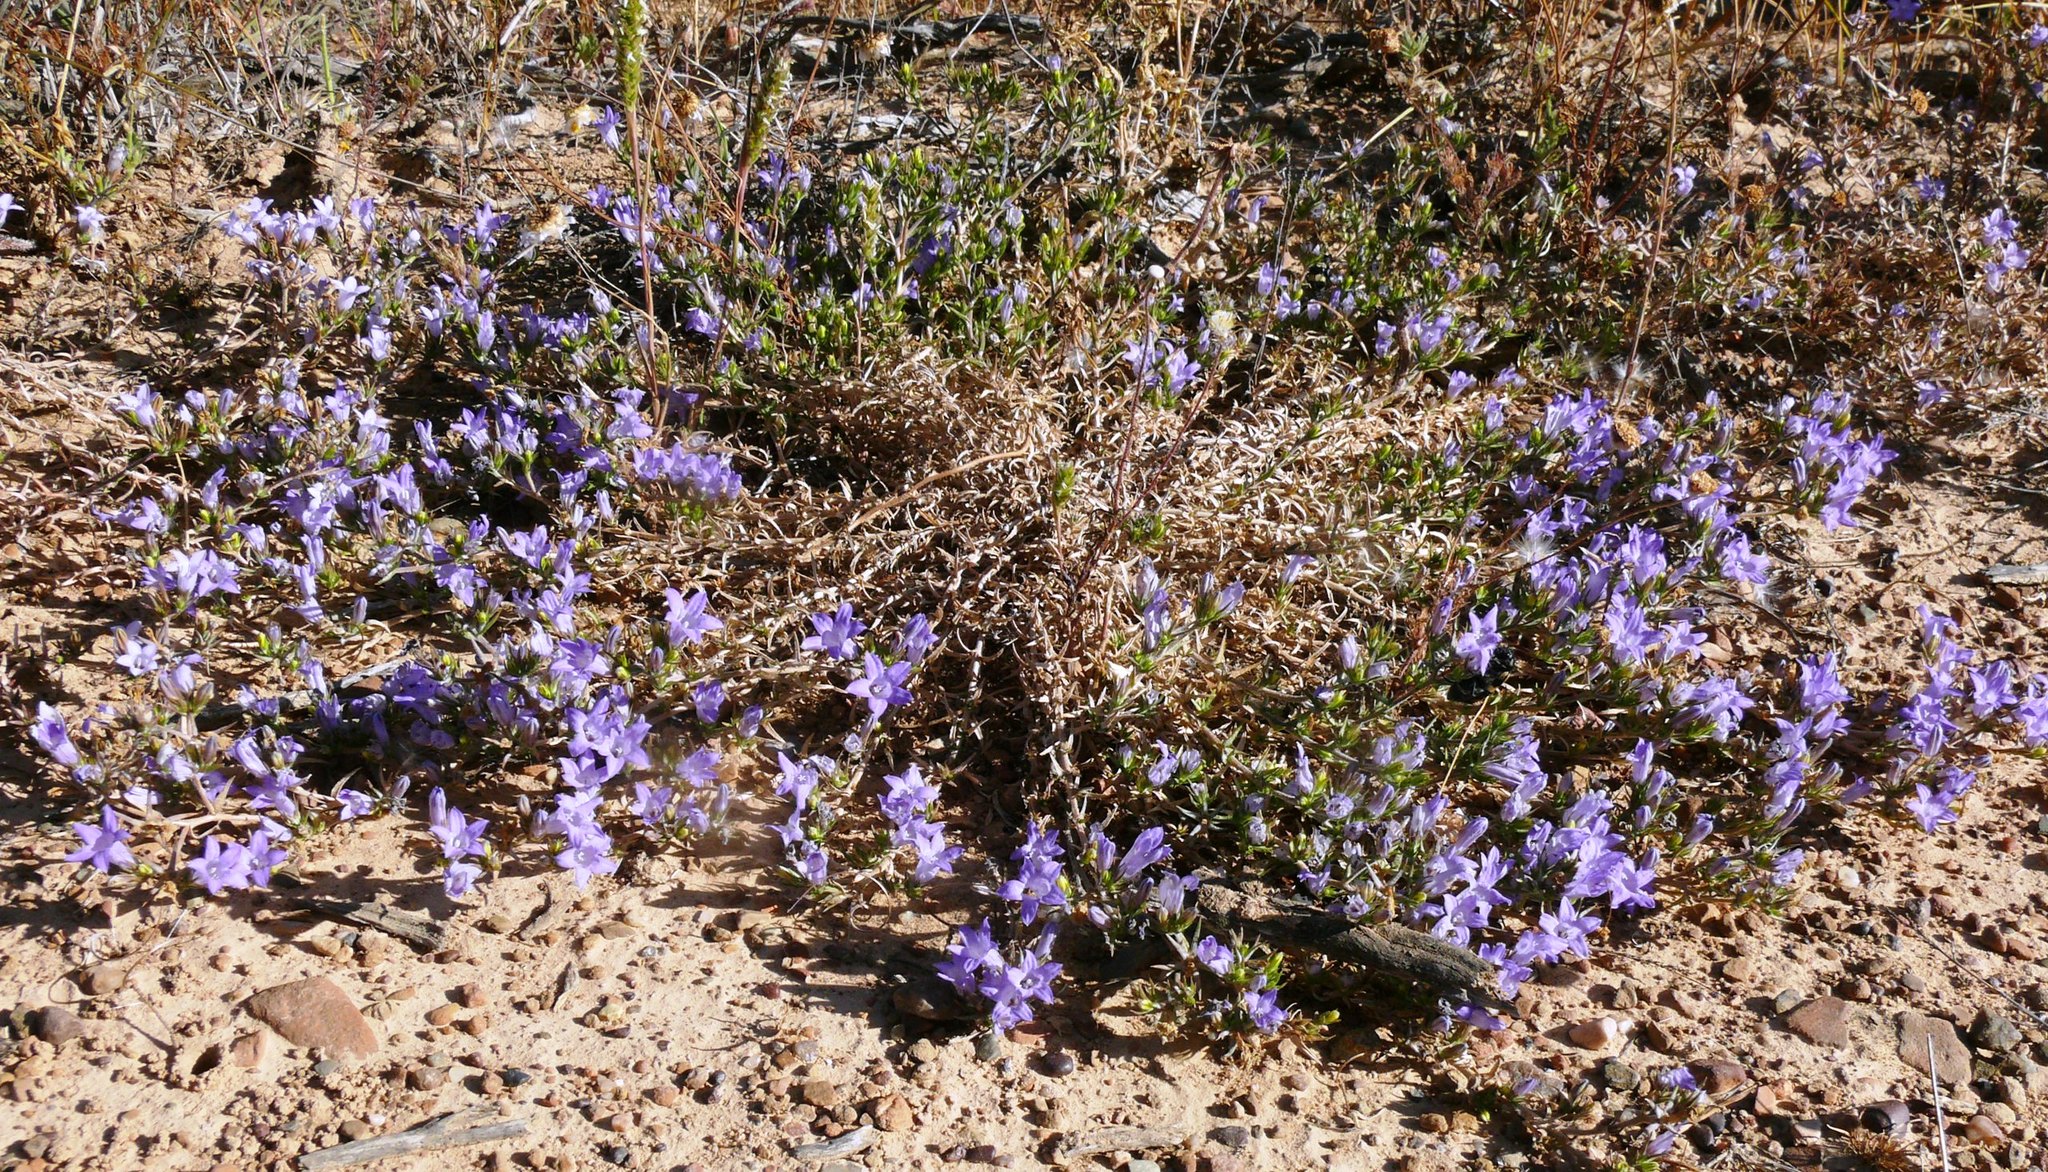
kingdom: Plantae
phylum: Tracheophyta
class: Magnoliopsida
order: Asterales
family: Campanulaceae
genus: Wahlenbergia
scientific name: Wahlenbergia oxyphylla
